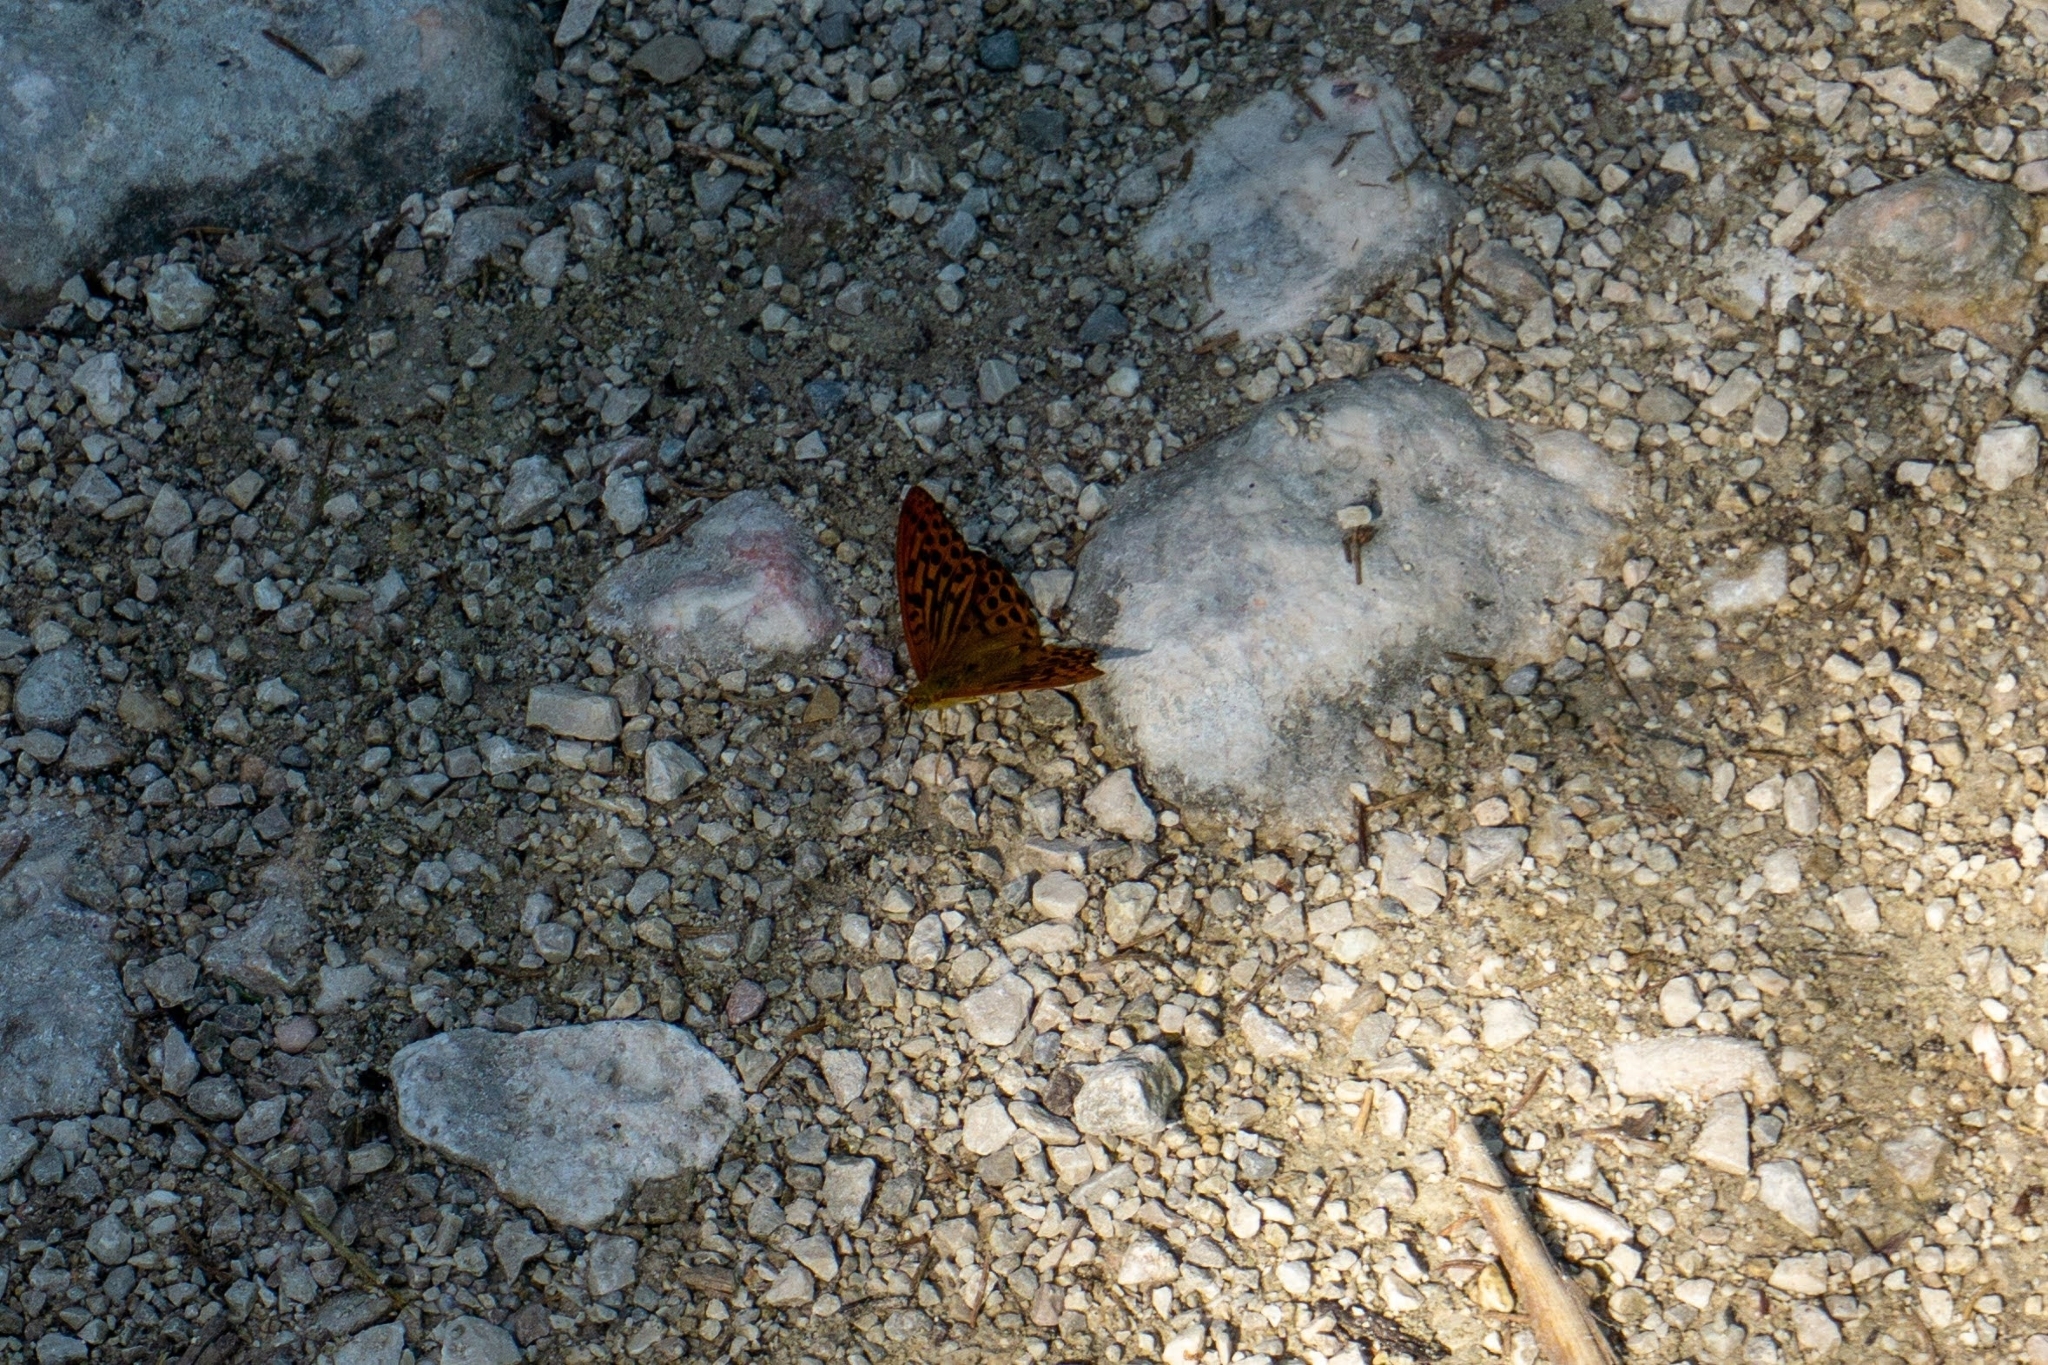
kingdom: Animalia
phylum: Arthropoda
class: Insecta
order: Lepidoptera
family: Nymphalidae
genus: Argynnis
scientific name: Argynnis paphia
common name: Silver-washed fritillary
